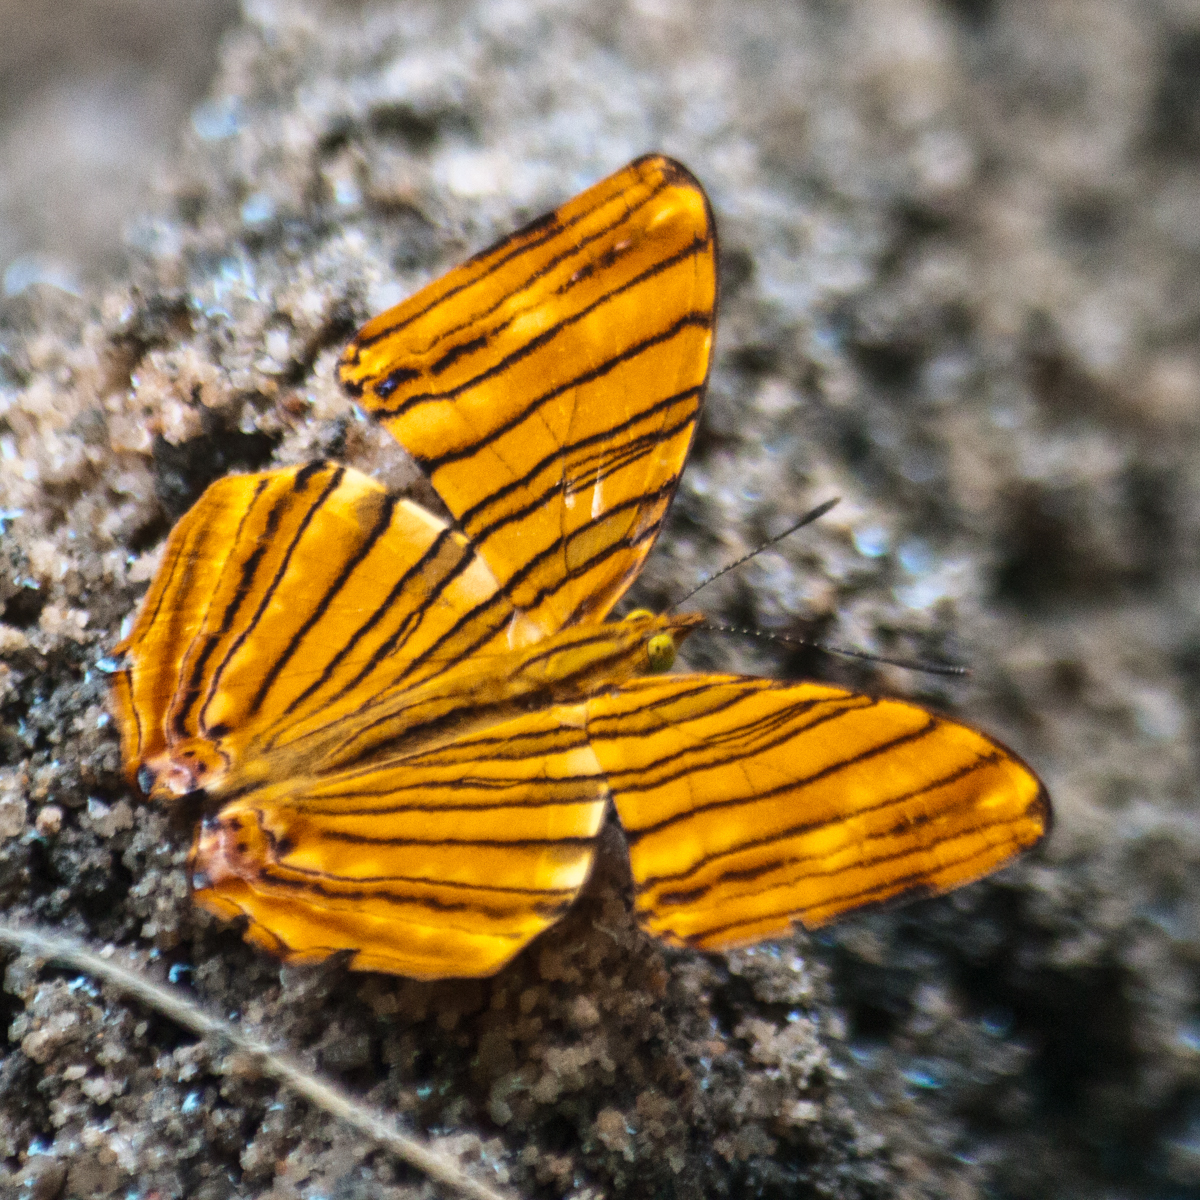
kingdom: Animalia
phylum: Arthropoda
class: Insecta
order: Lepidoptera
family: Nymphalidae
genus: Chersonesia
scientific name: Chersonesia risa
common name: Common maplet
